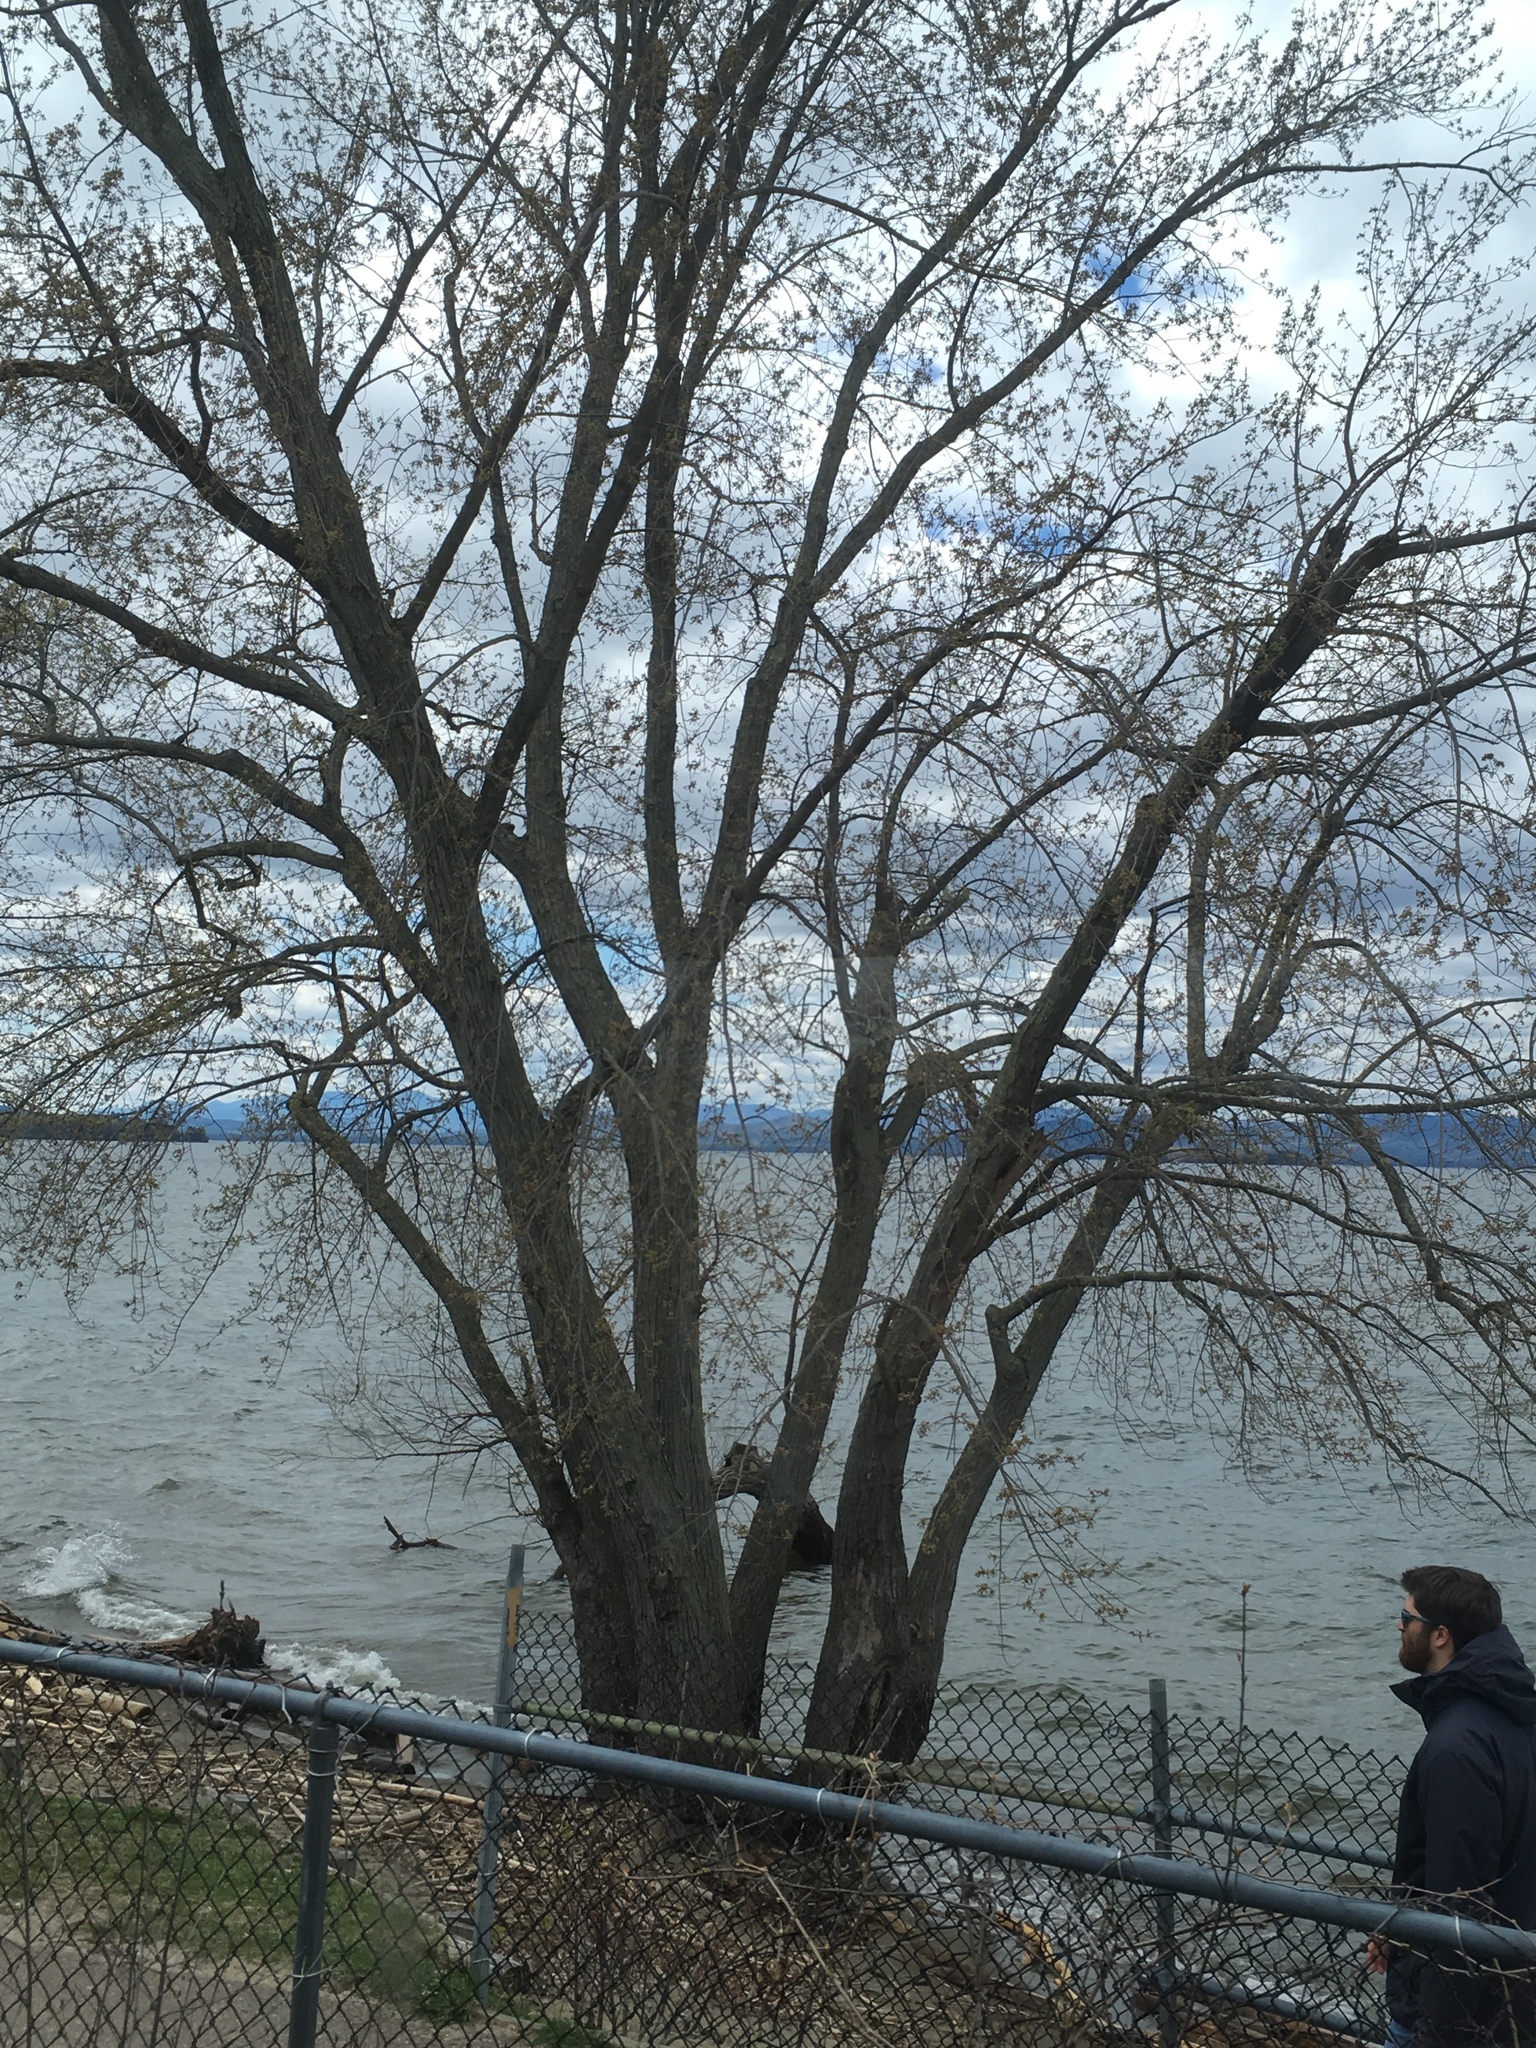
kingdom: Plantae
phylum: Tracheophyta
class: Magnoliopsida
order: Sapindales
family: Sapindaceae
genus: Acer
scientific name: Acer saccharinum
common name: Silver maple
